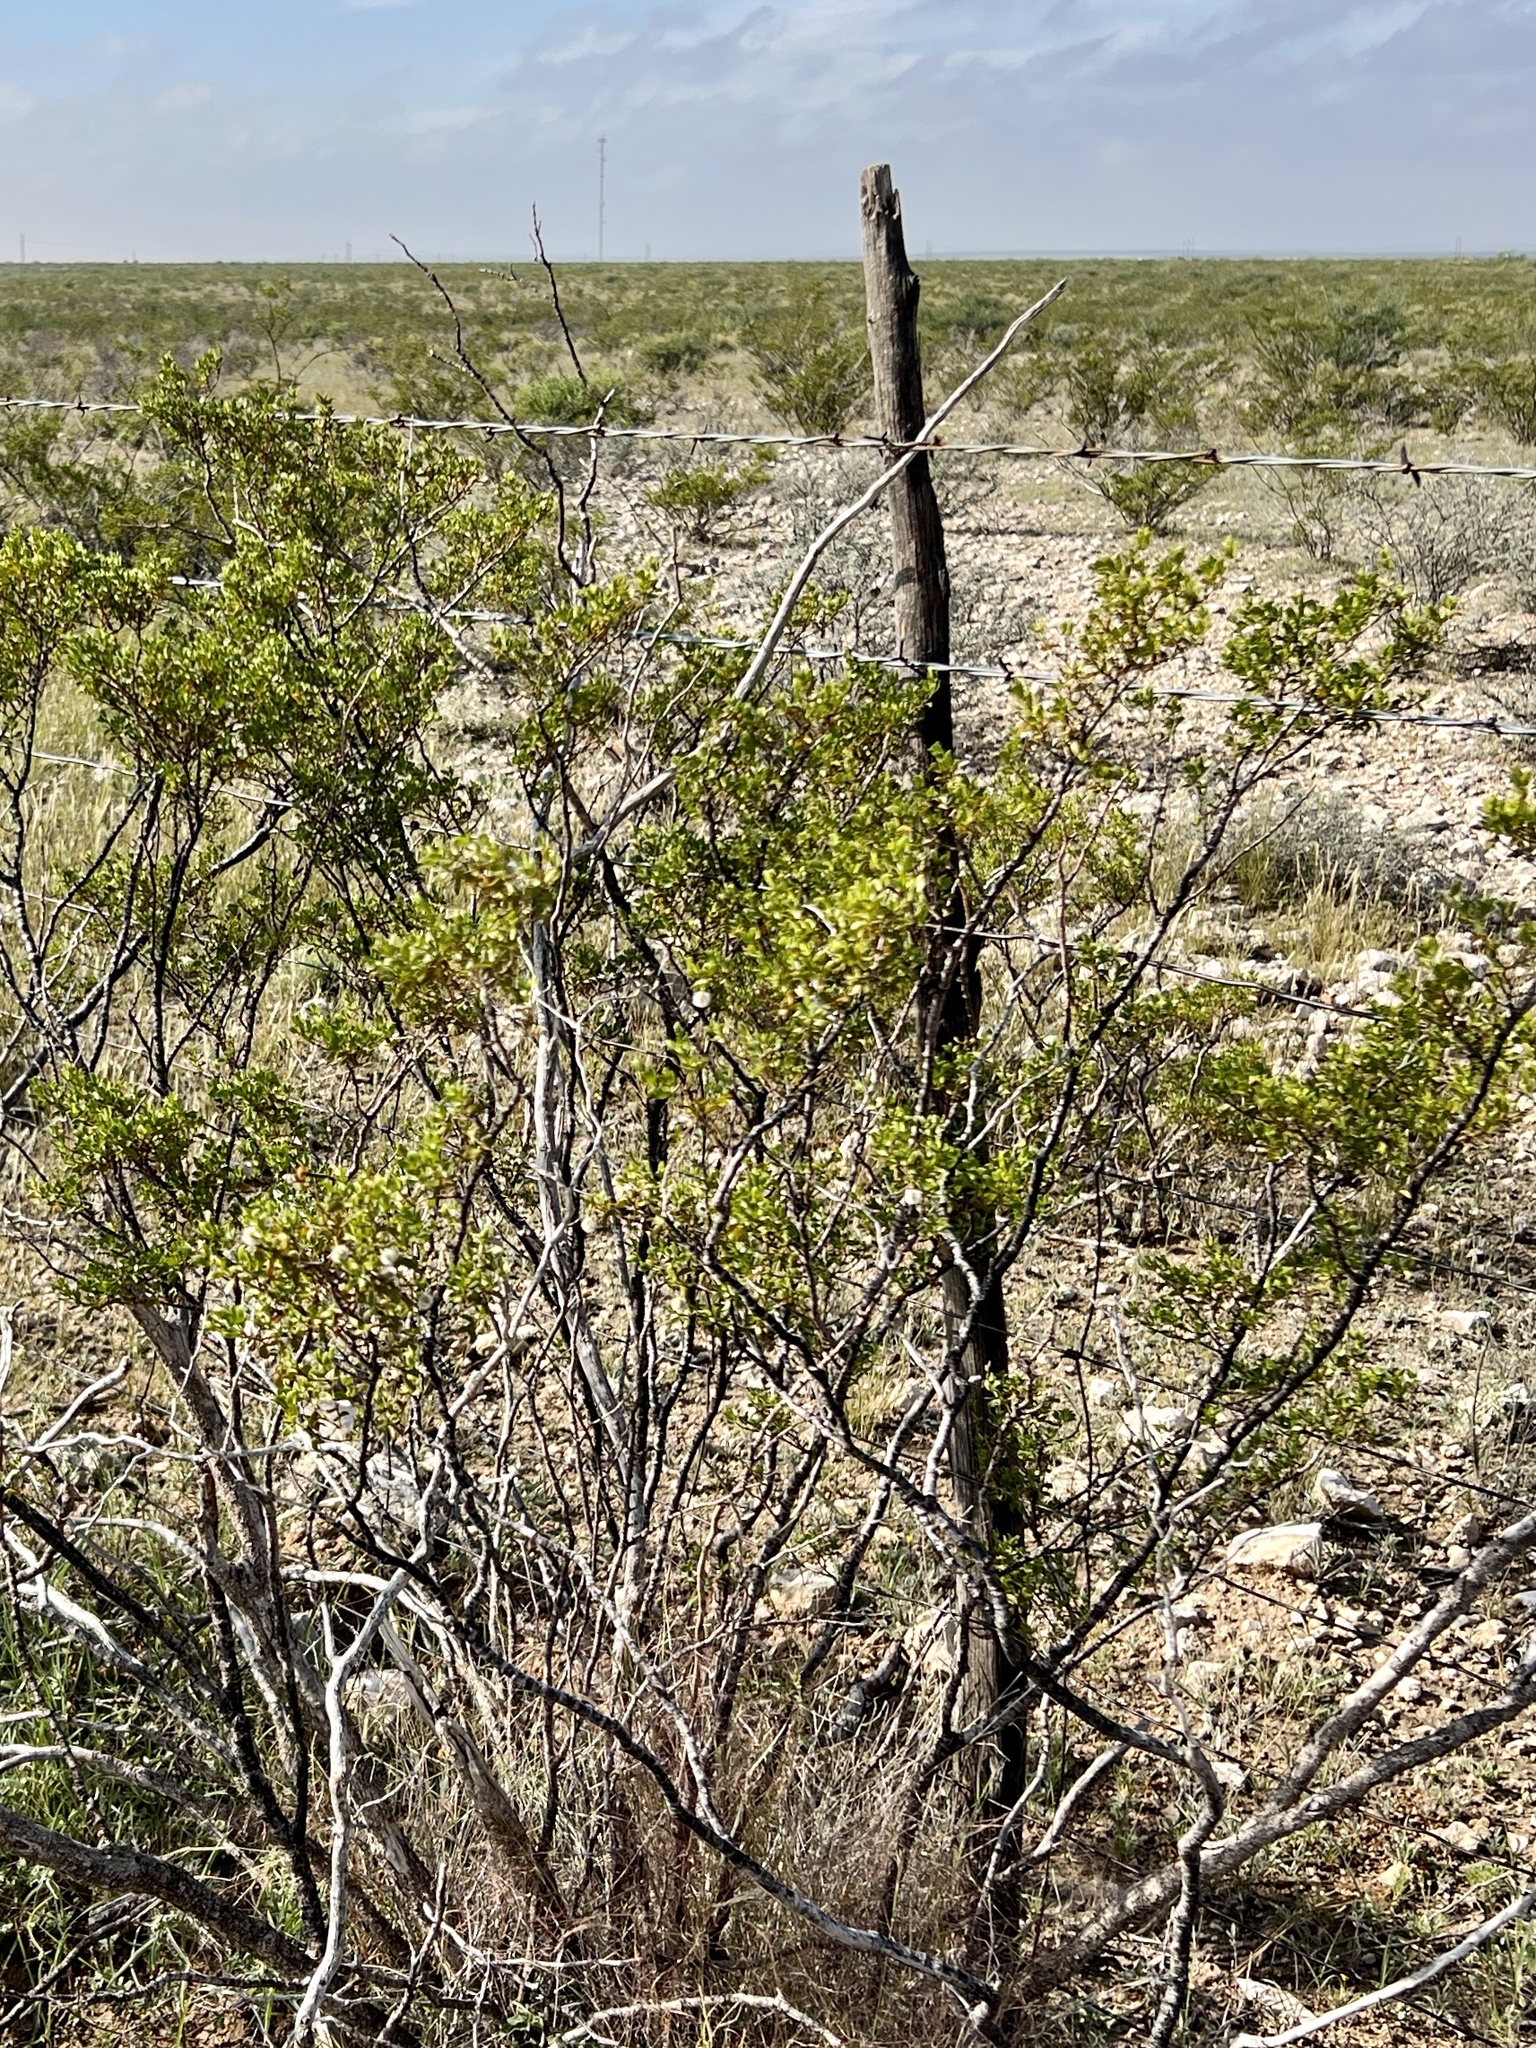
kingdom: Plantae
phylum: Tracheophyta
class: Magnoliopsida
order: Zygophyllales
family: Zygophyllaceae
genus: Larrea
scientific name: Larrea tridentata
